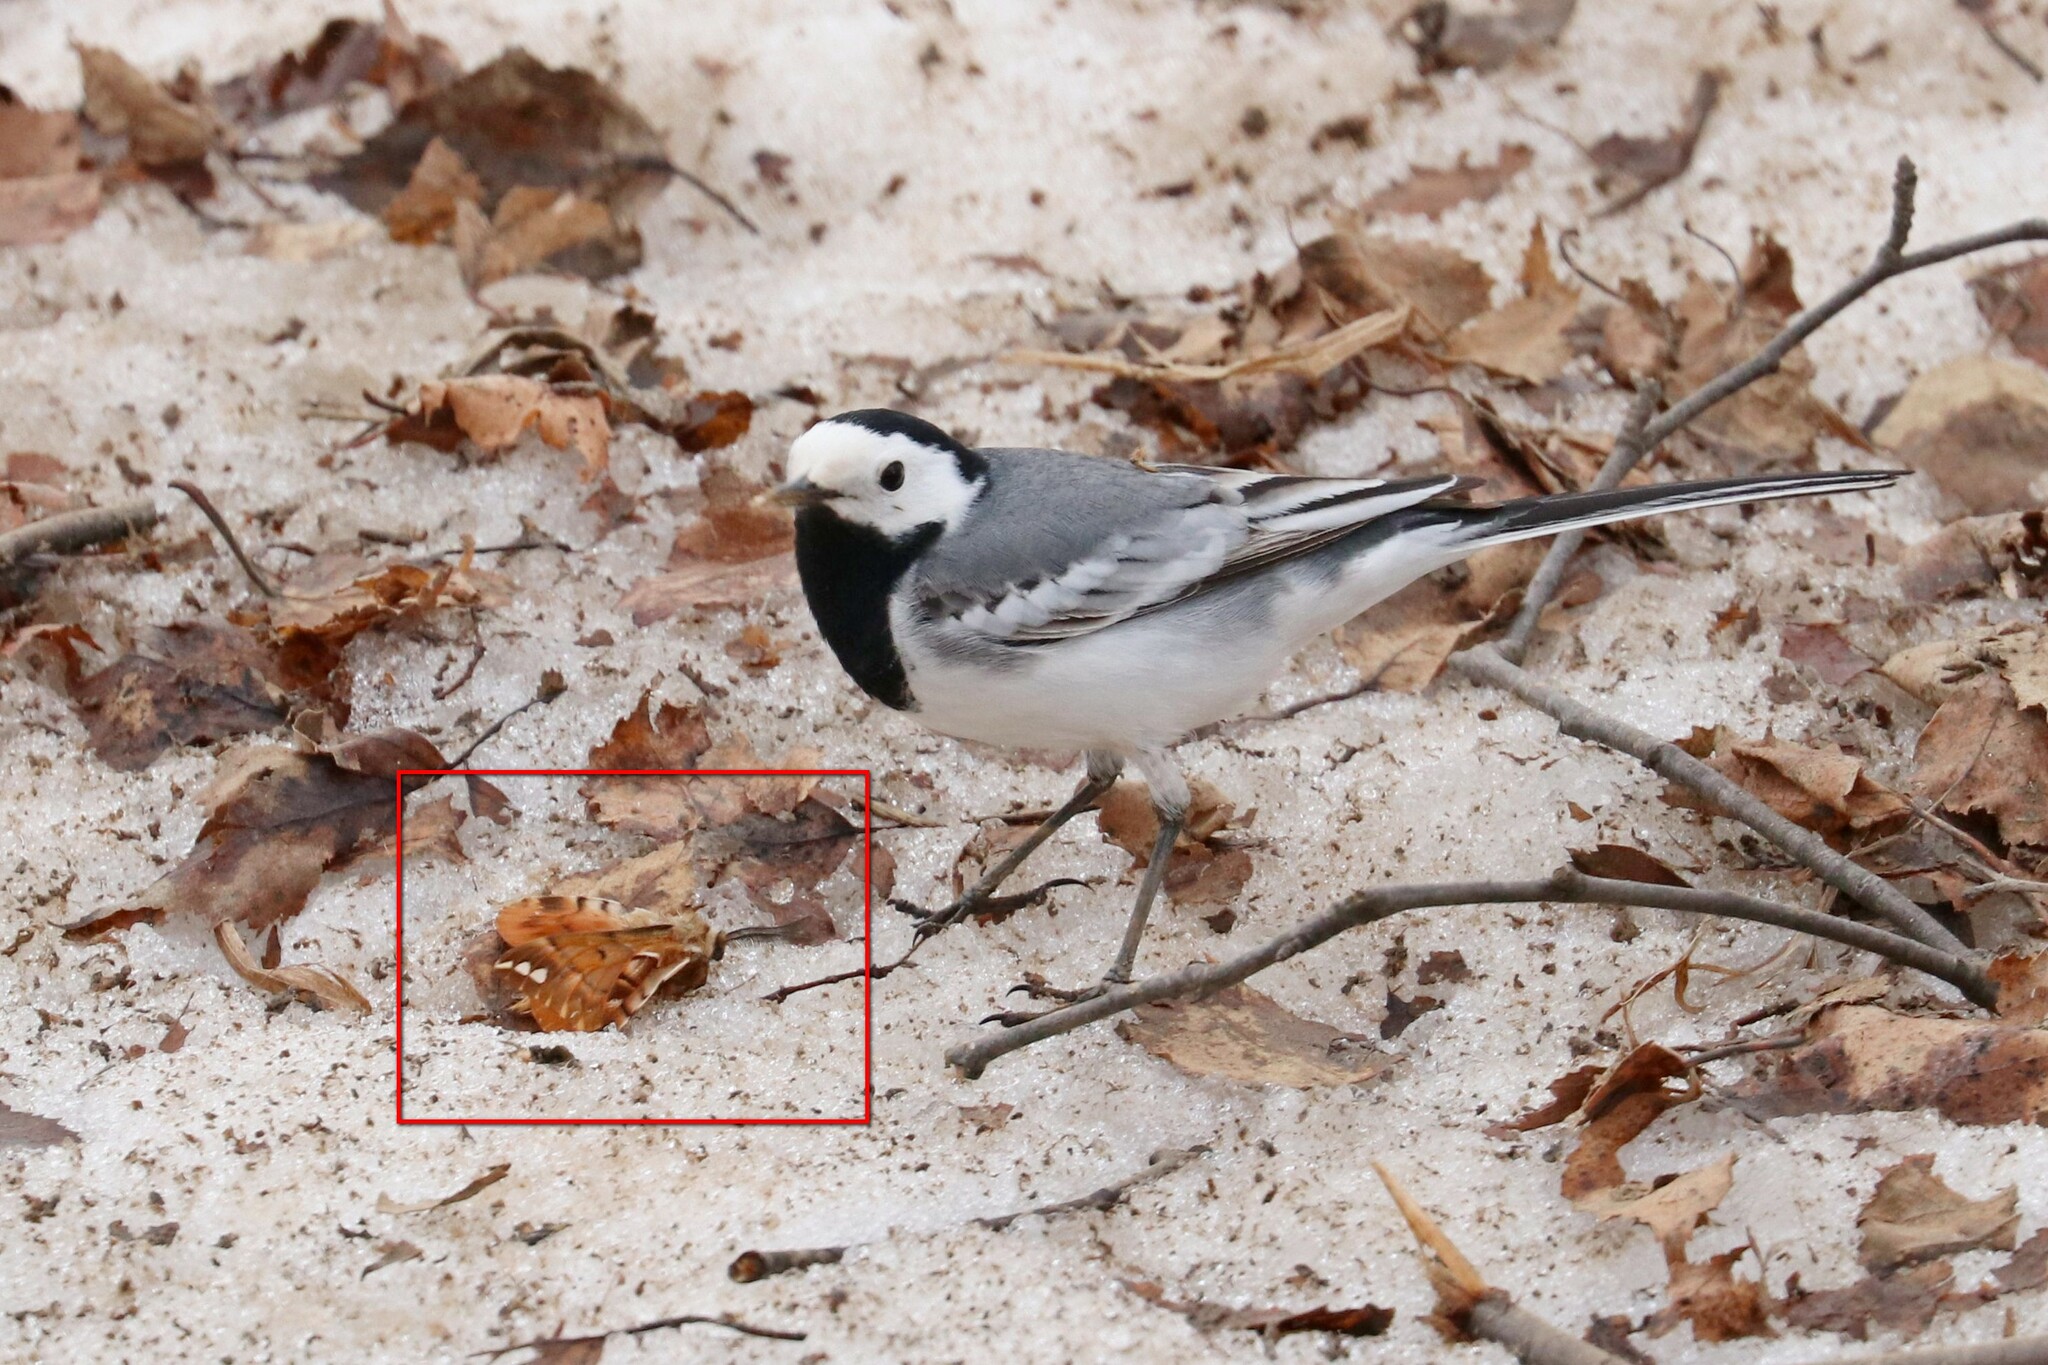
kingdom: Animalia
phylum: Arthropoda
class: Insecta
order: Lepidoptera
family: Endromidae
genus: Endromis
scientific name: Endromis versicolora
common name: Kentish glory
